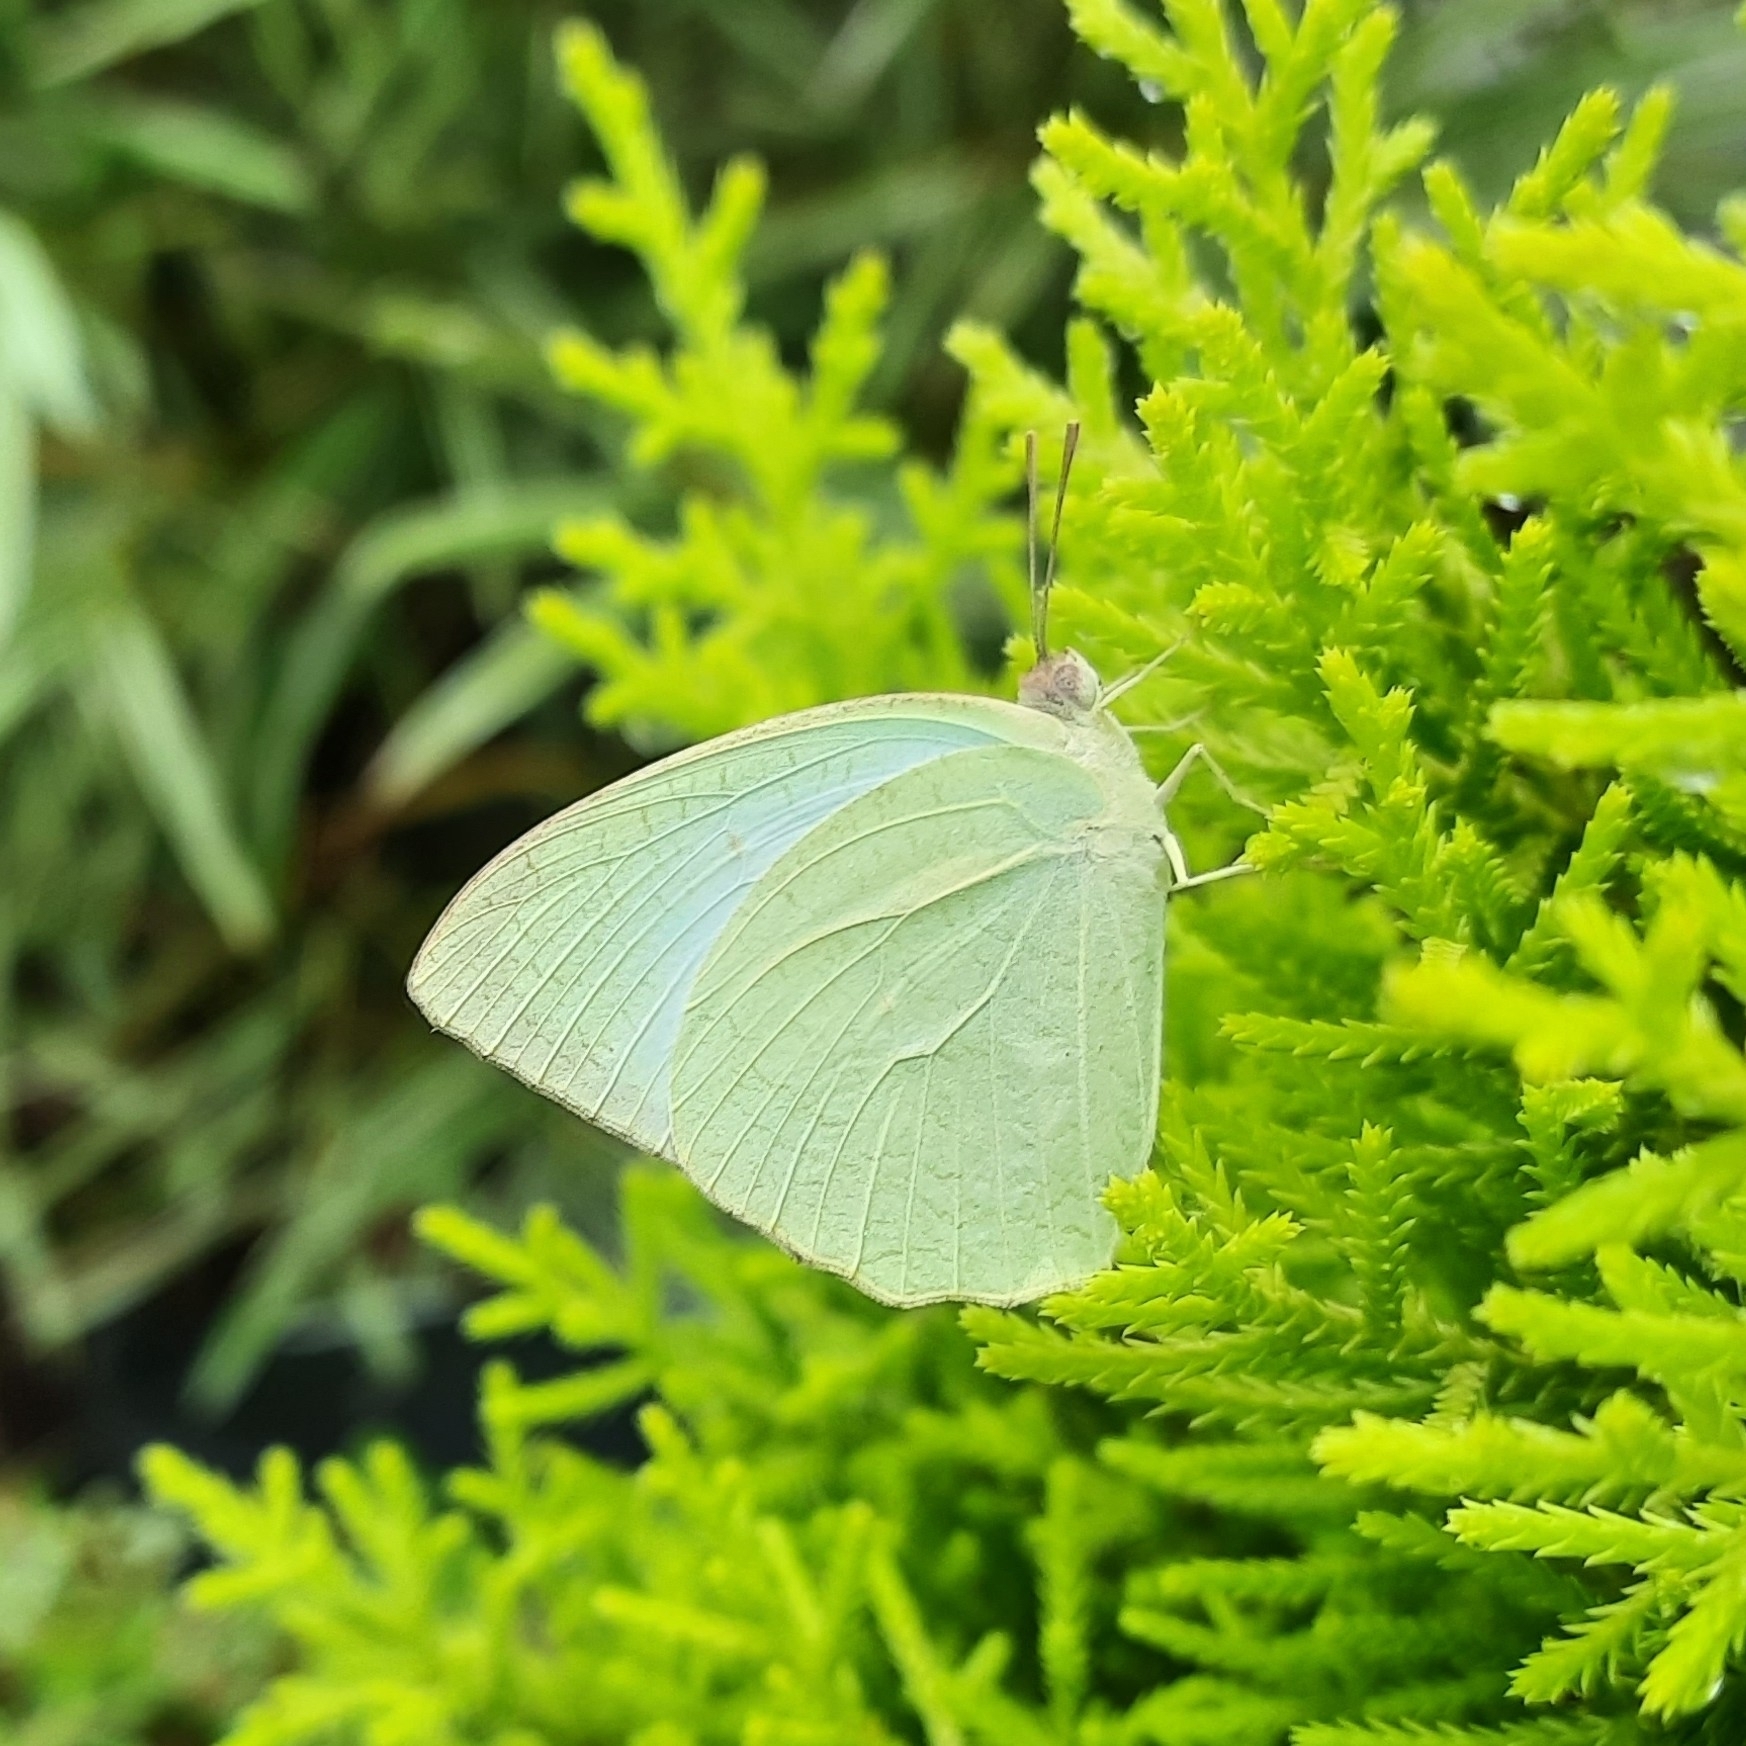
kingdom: Animalia
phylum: Arthropoda
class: Insecta
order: Lepidoptera
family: Pieridae
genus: Catopsilia
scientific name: Catopsilia pyranthe
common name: Mottled emigrant
